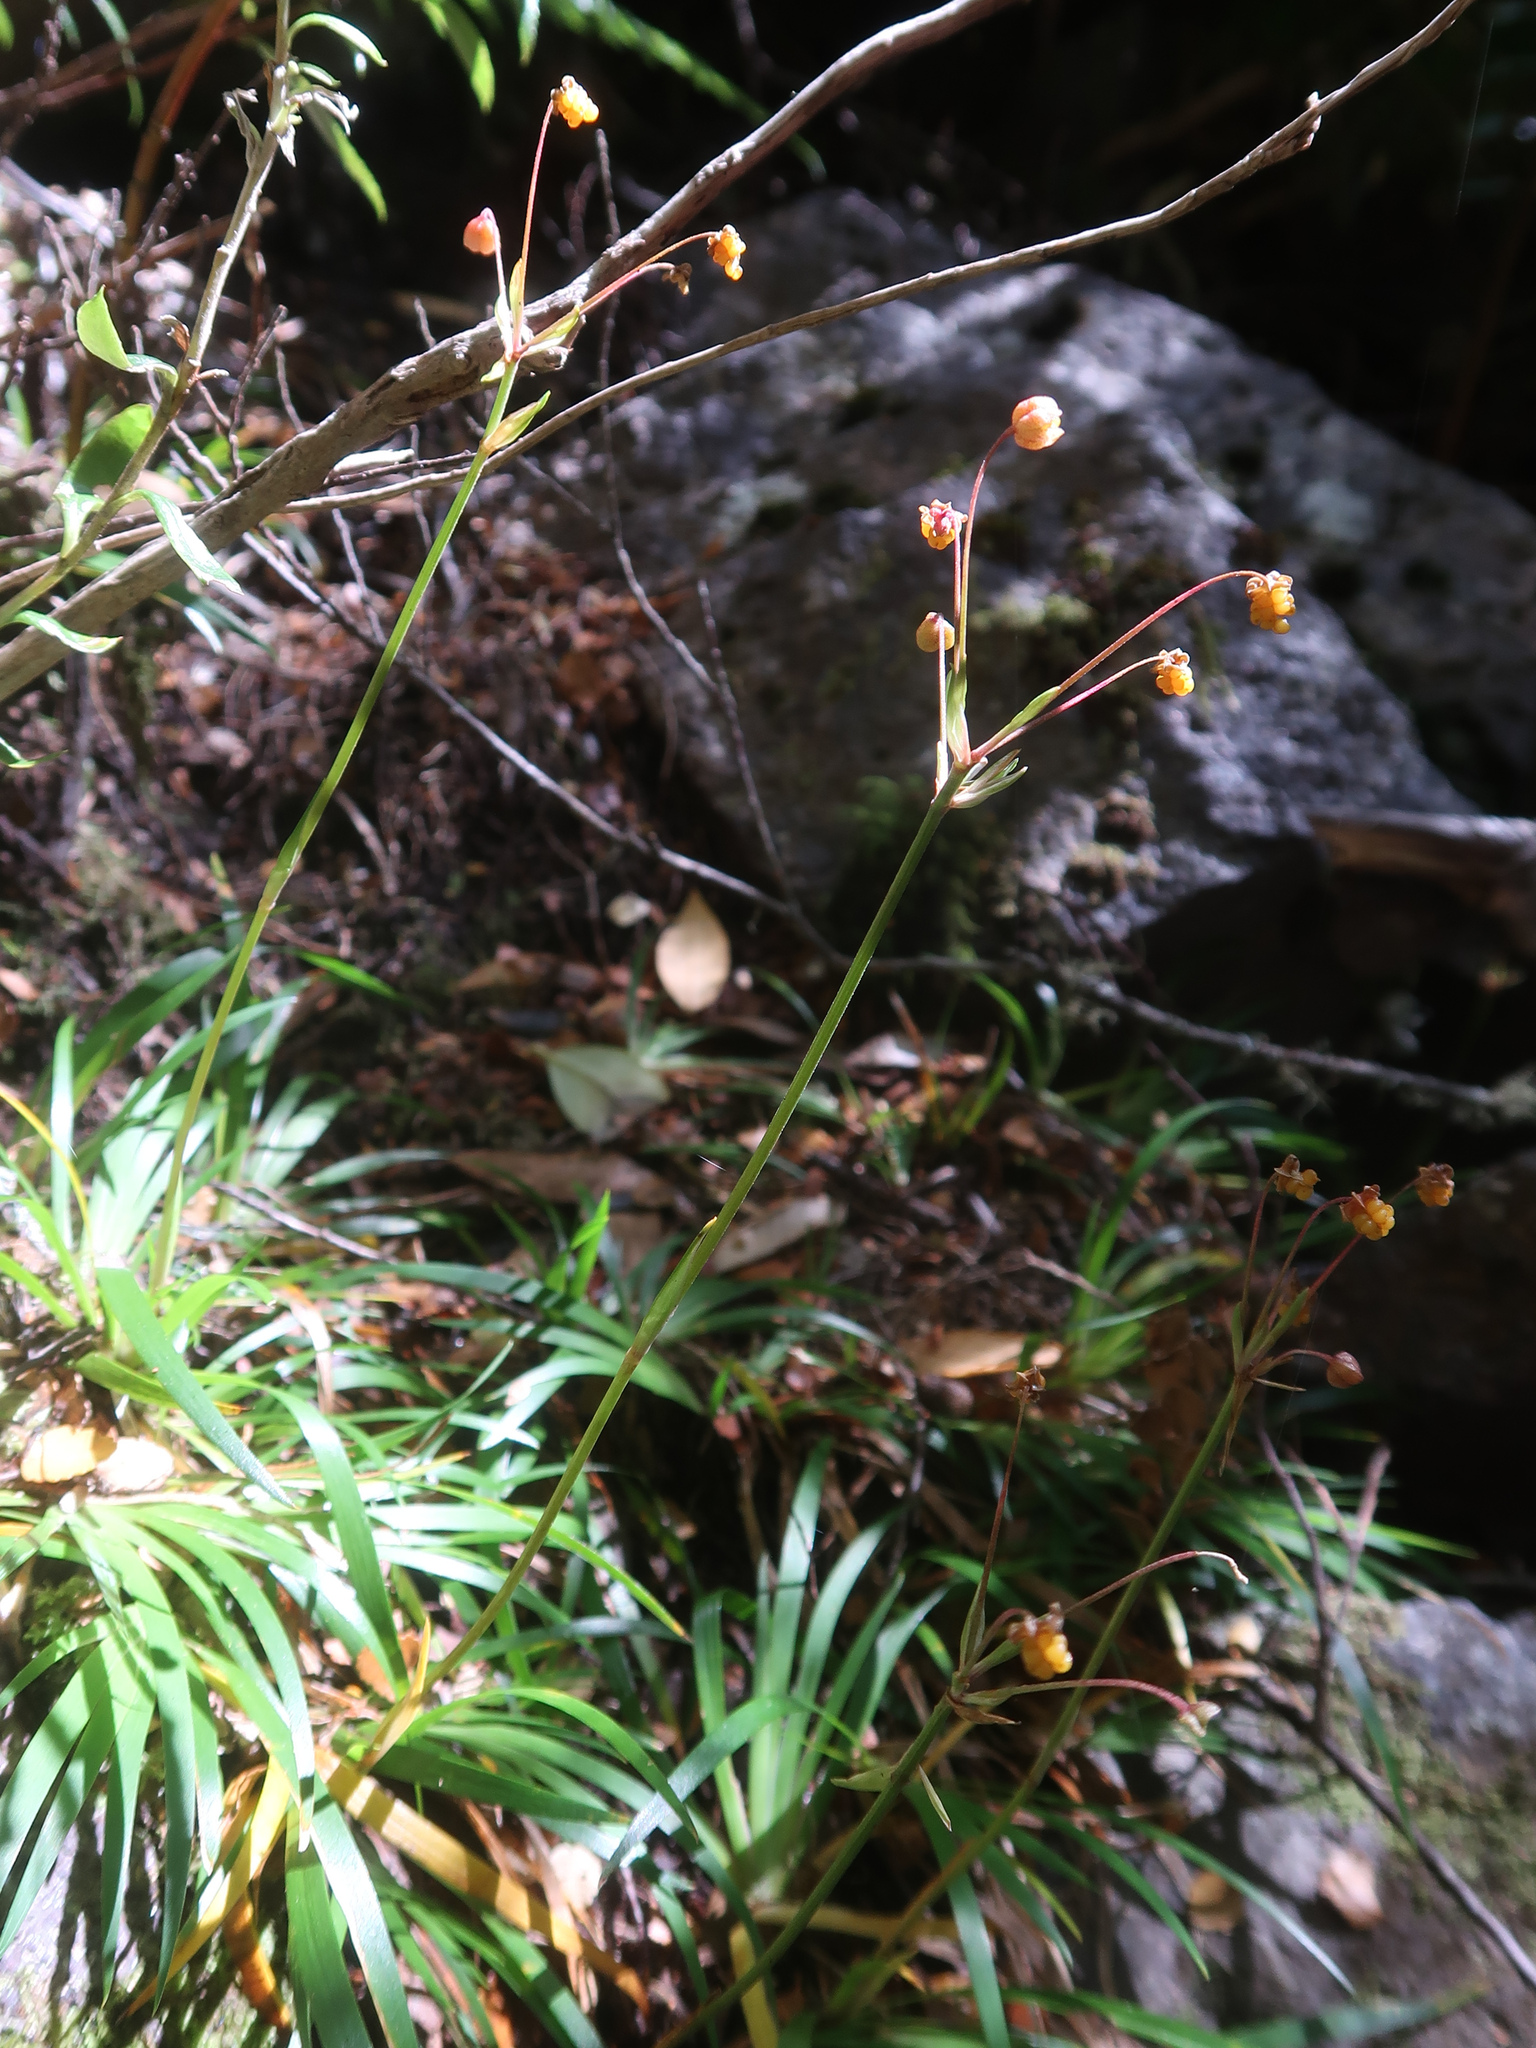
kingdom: Plantae
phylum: Tracheophyta
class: Liliopsida
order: Asparagales
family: Iridaceae
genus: Libertia
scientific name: Libertia pulchella
